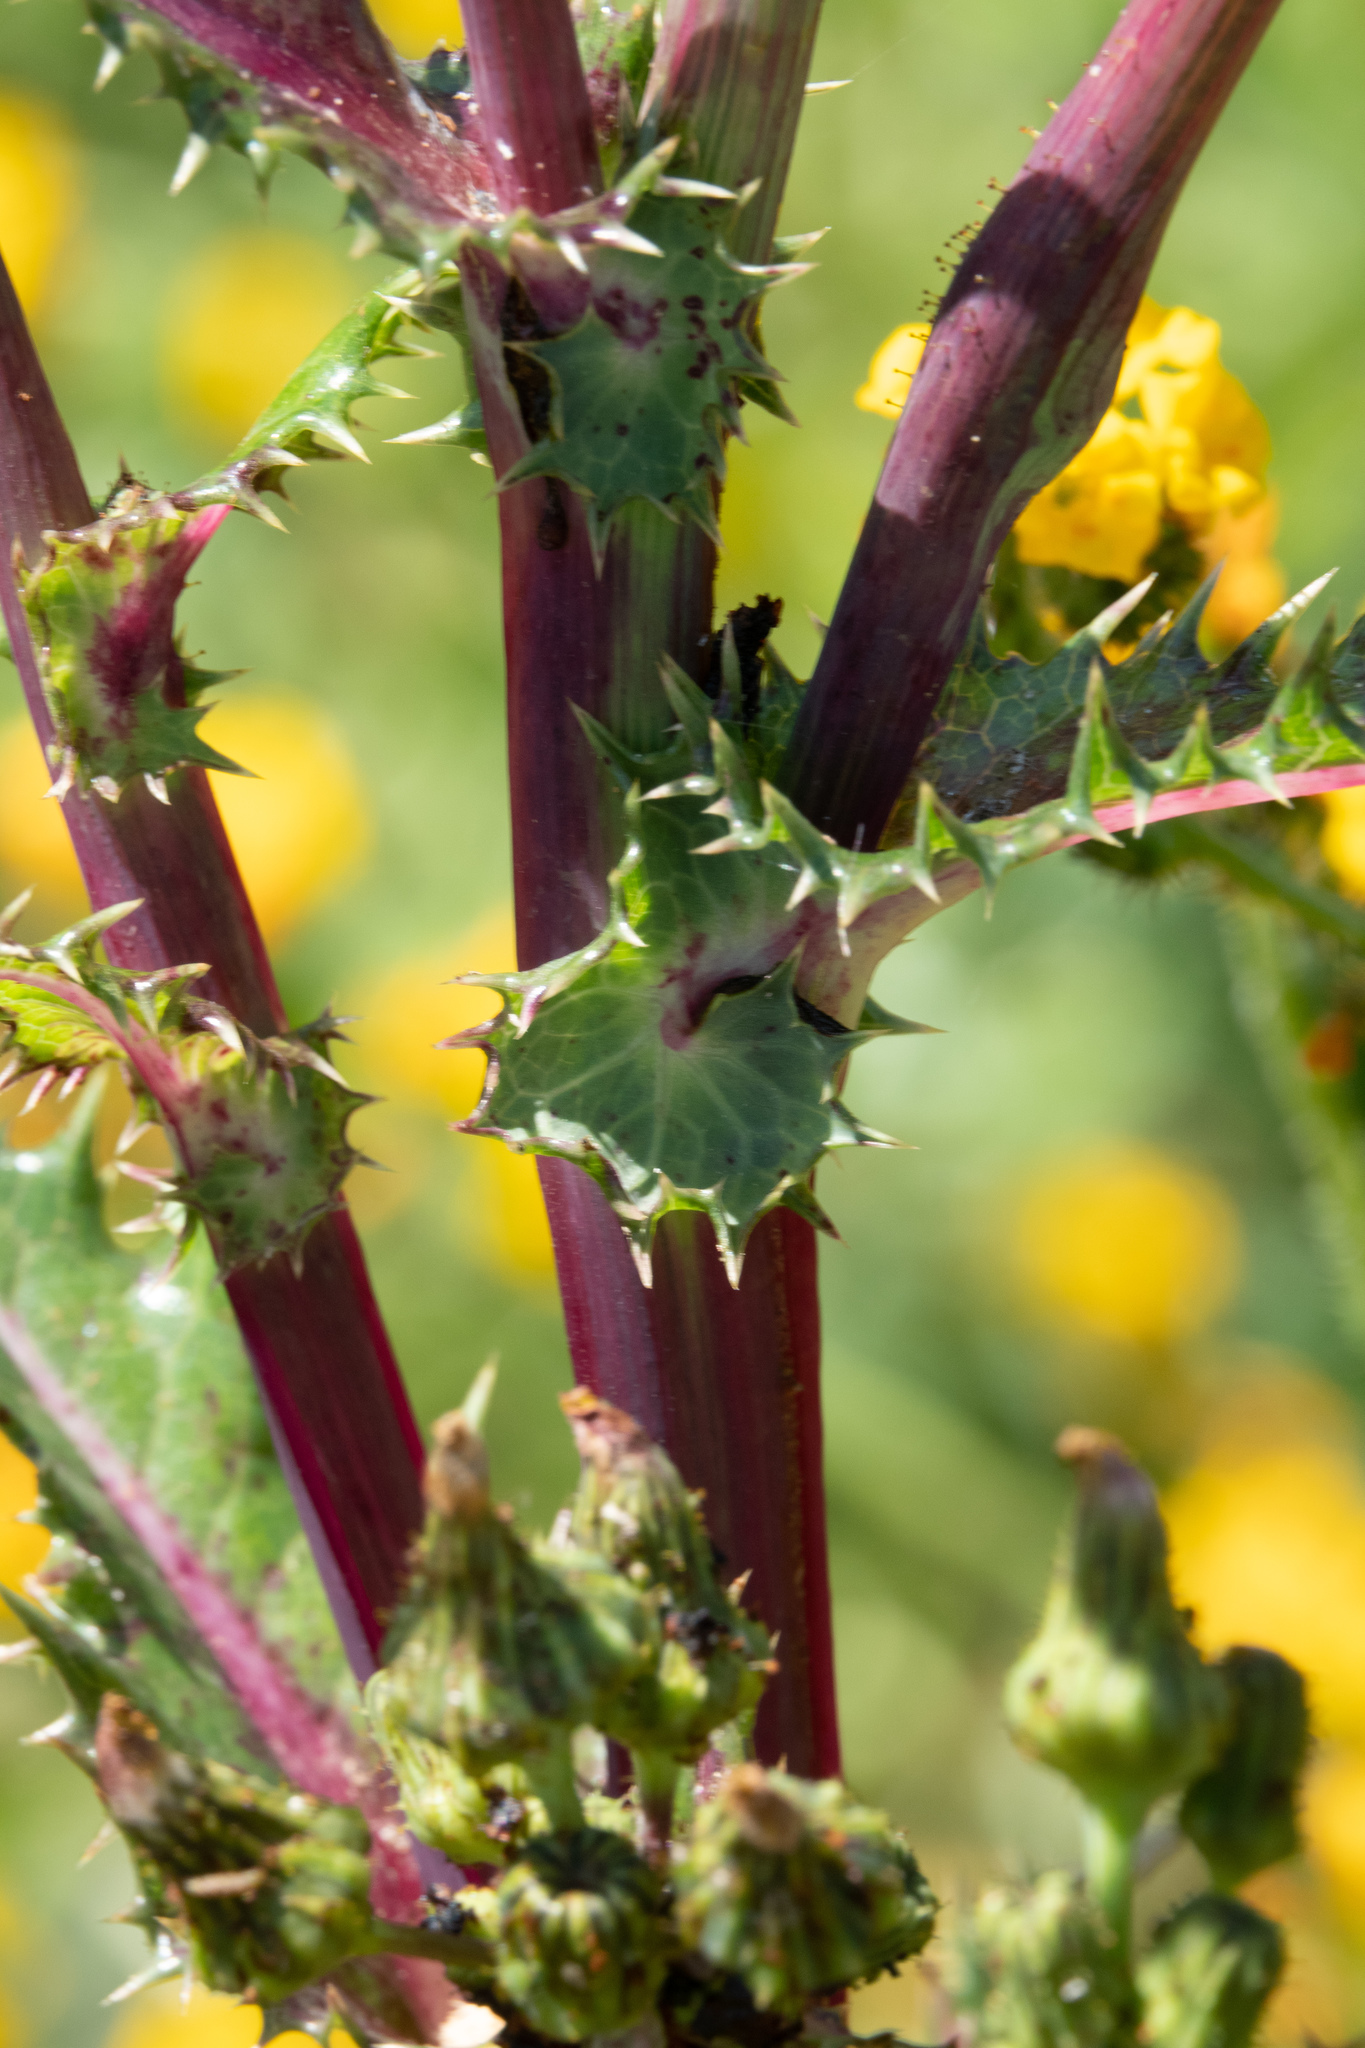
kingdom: Plantae
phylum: Tracheophyta
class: Magnoliopsida
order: Asterales
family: Asteraceae
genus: Sonchus
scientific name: Sonchus asper
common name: Prickly sow-thistle
